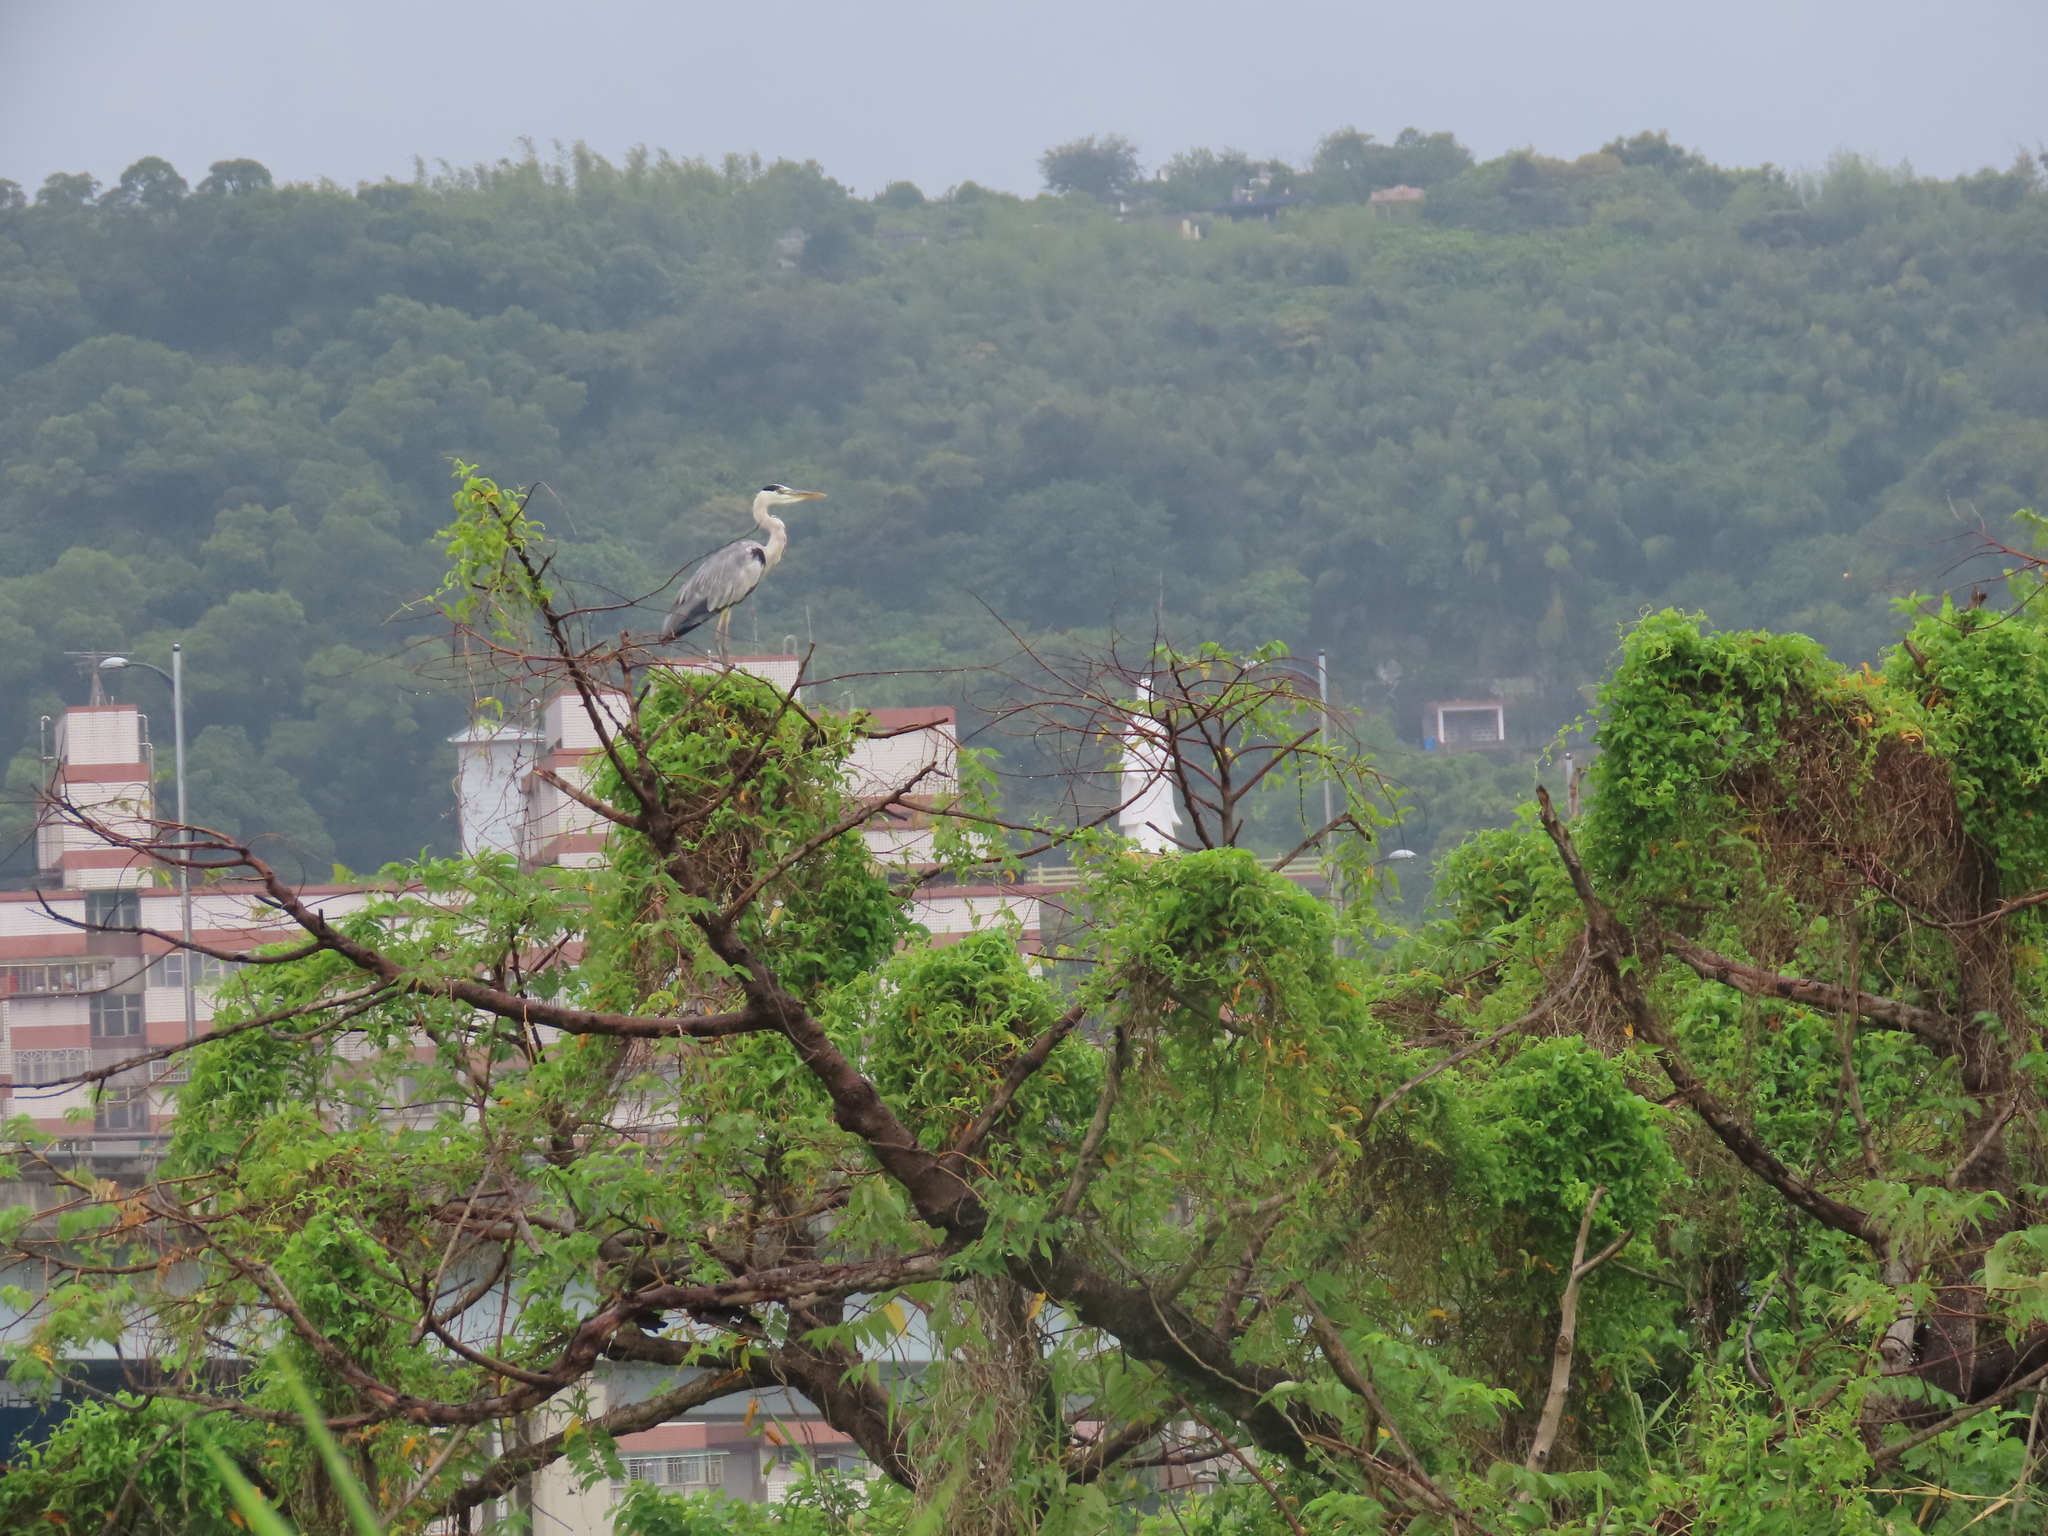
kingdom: Animalia
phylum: Chordata
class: Aves
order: Pelecaniformes
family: Ardeidae
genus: Ardea
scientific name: Ardea cinerea
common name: Grey heron
